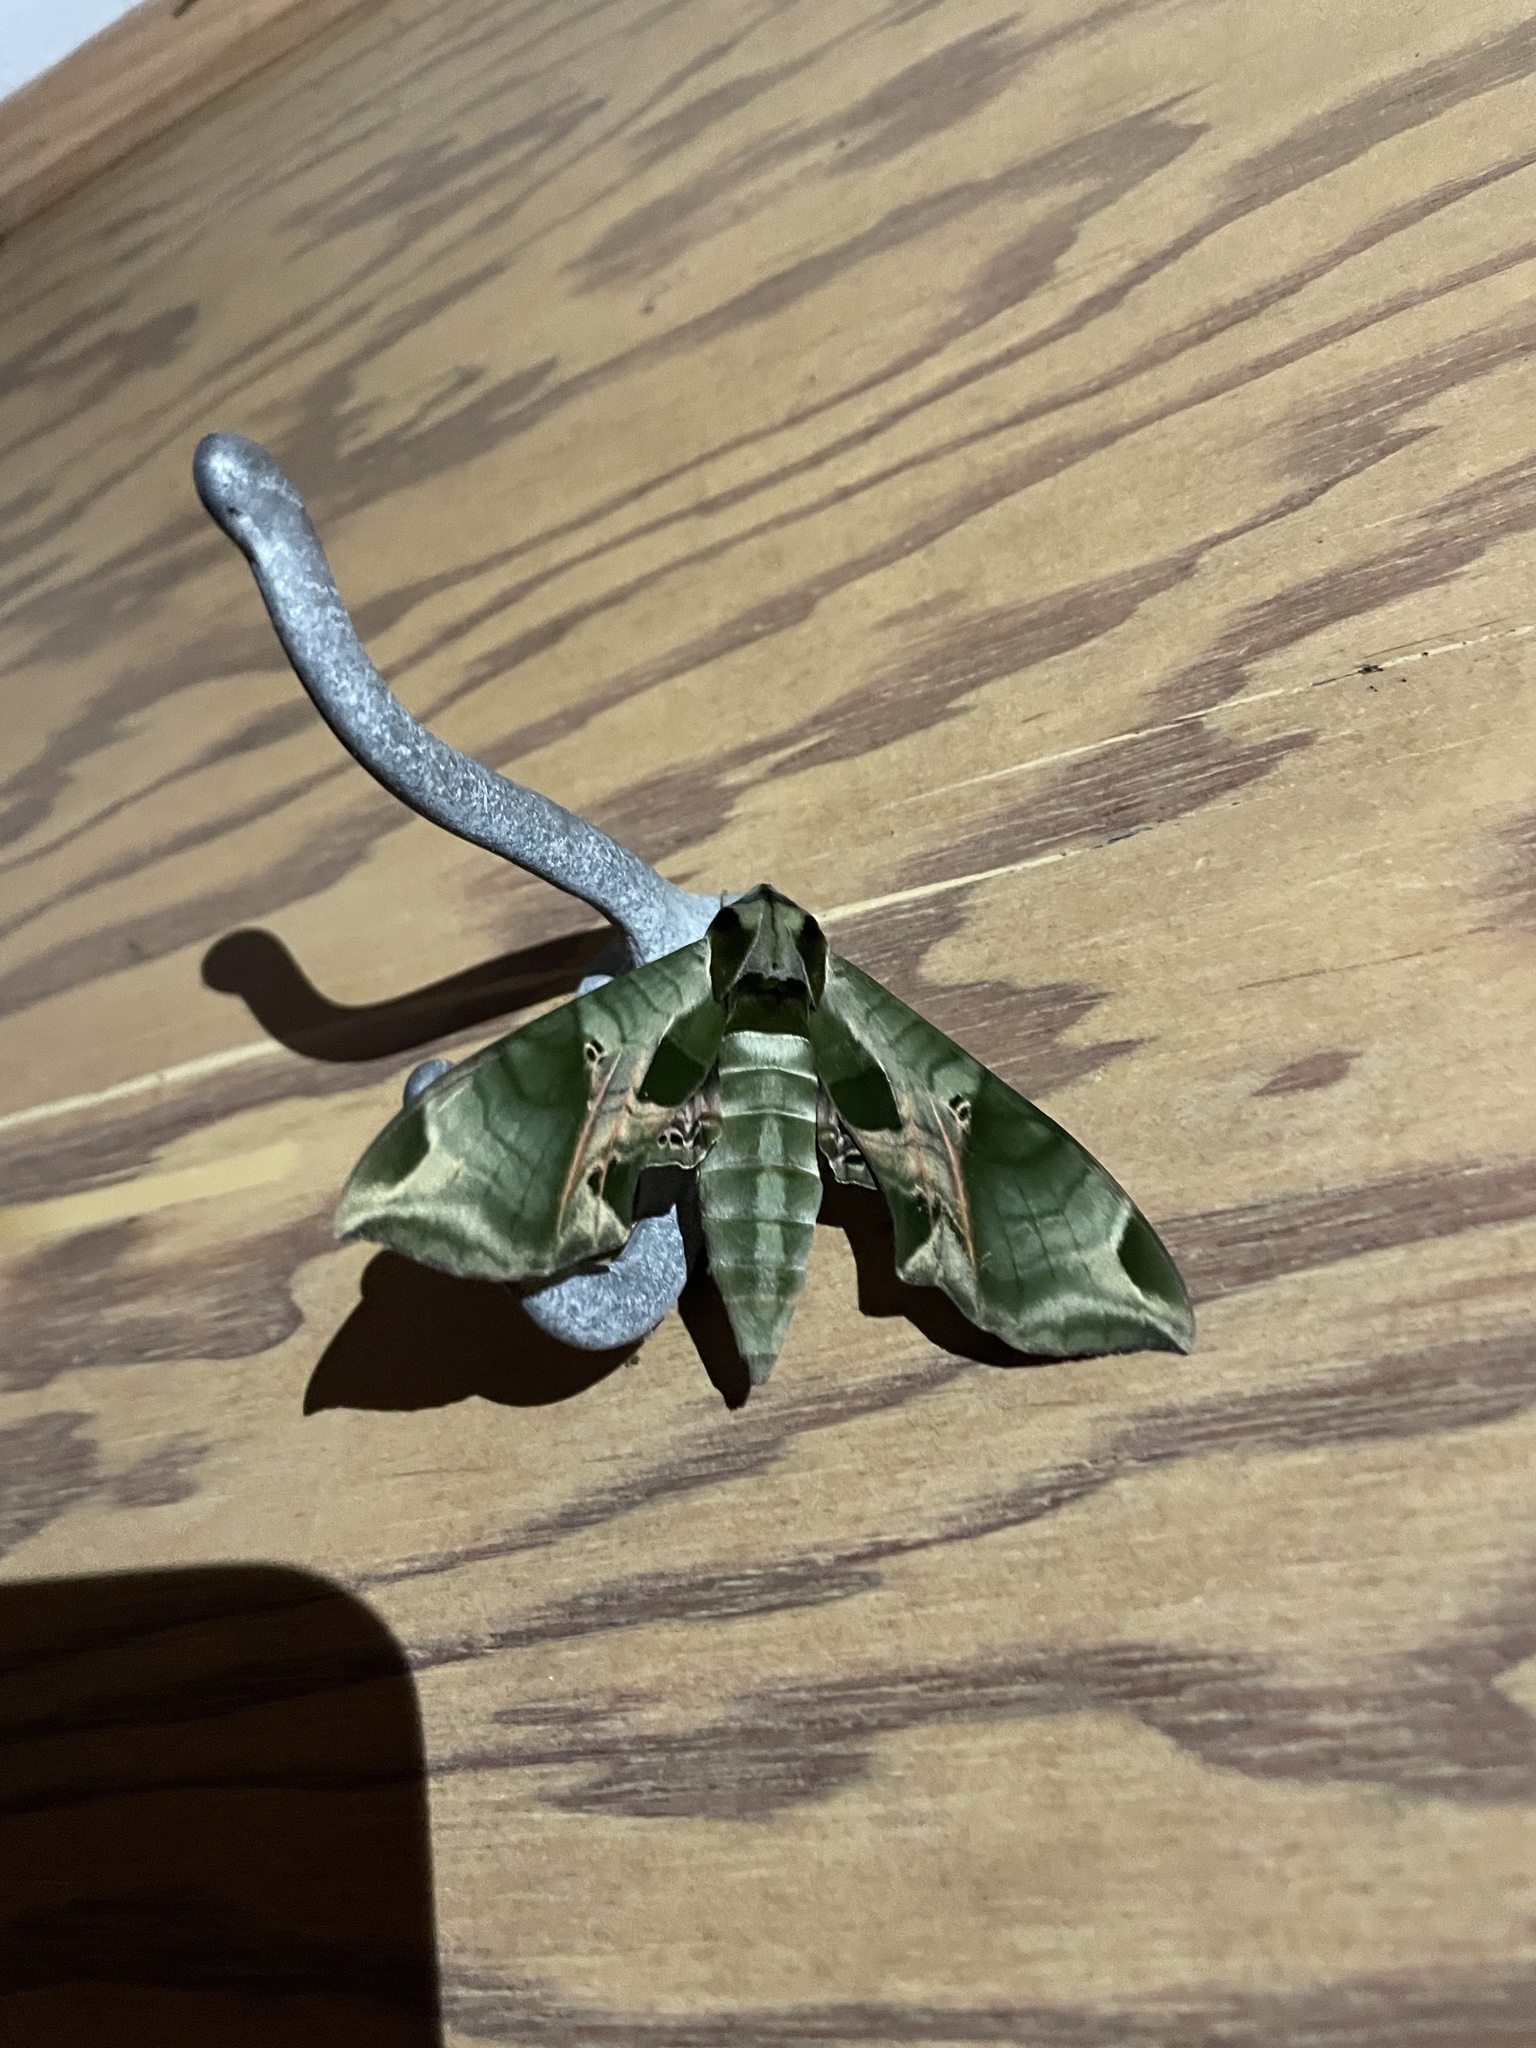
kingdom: Animalia
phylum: Arthropoda
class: Insecta
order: Lepidoptera
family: Sphingidae
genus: Eumorpha
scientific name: Eumorpha pandorus
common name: Pandora sphinx
